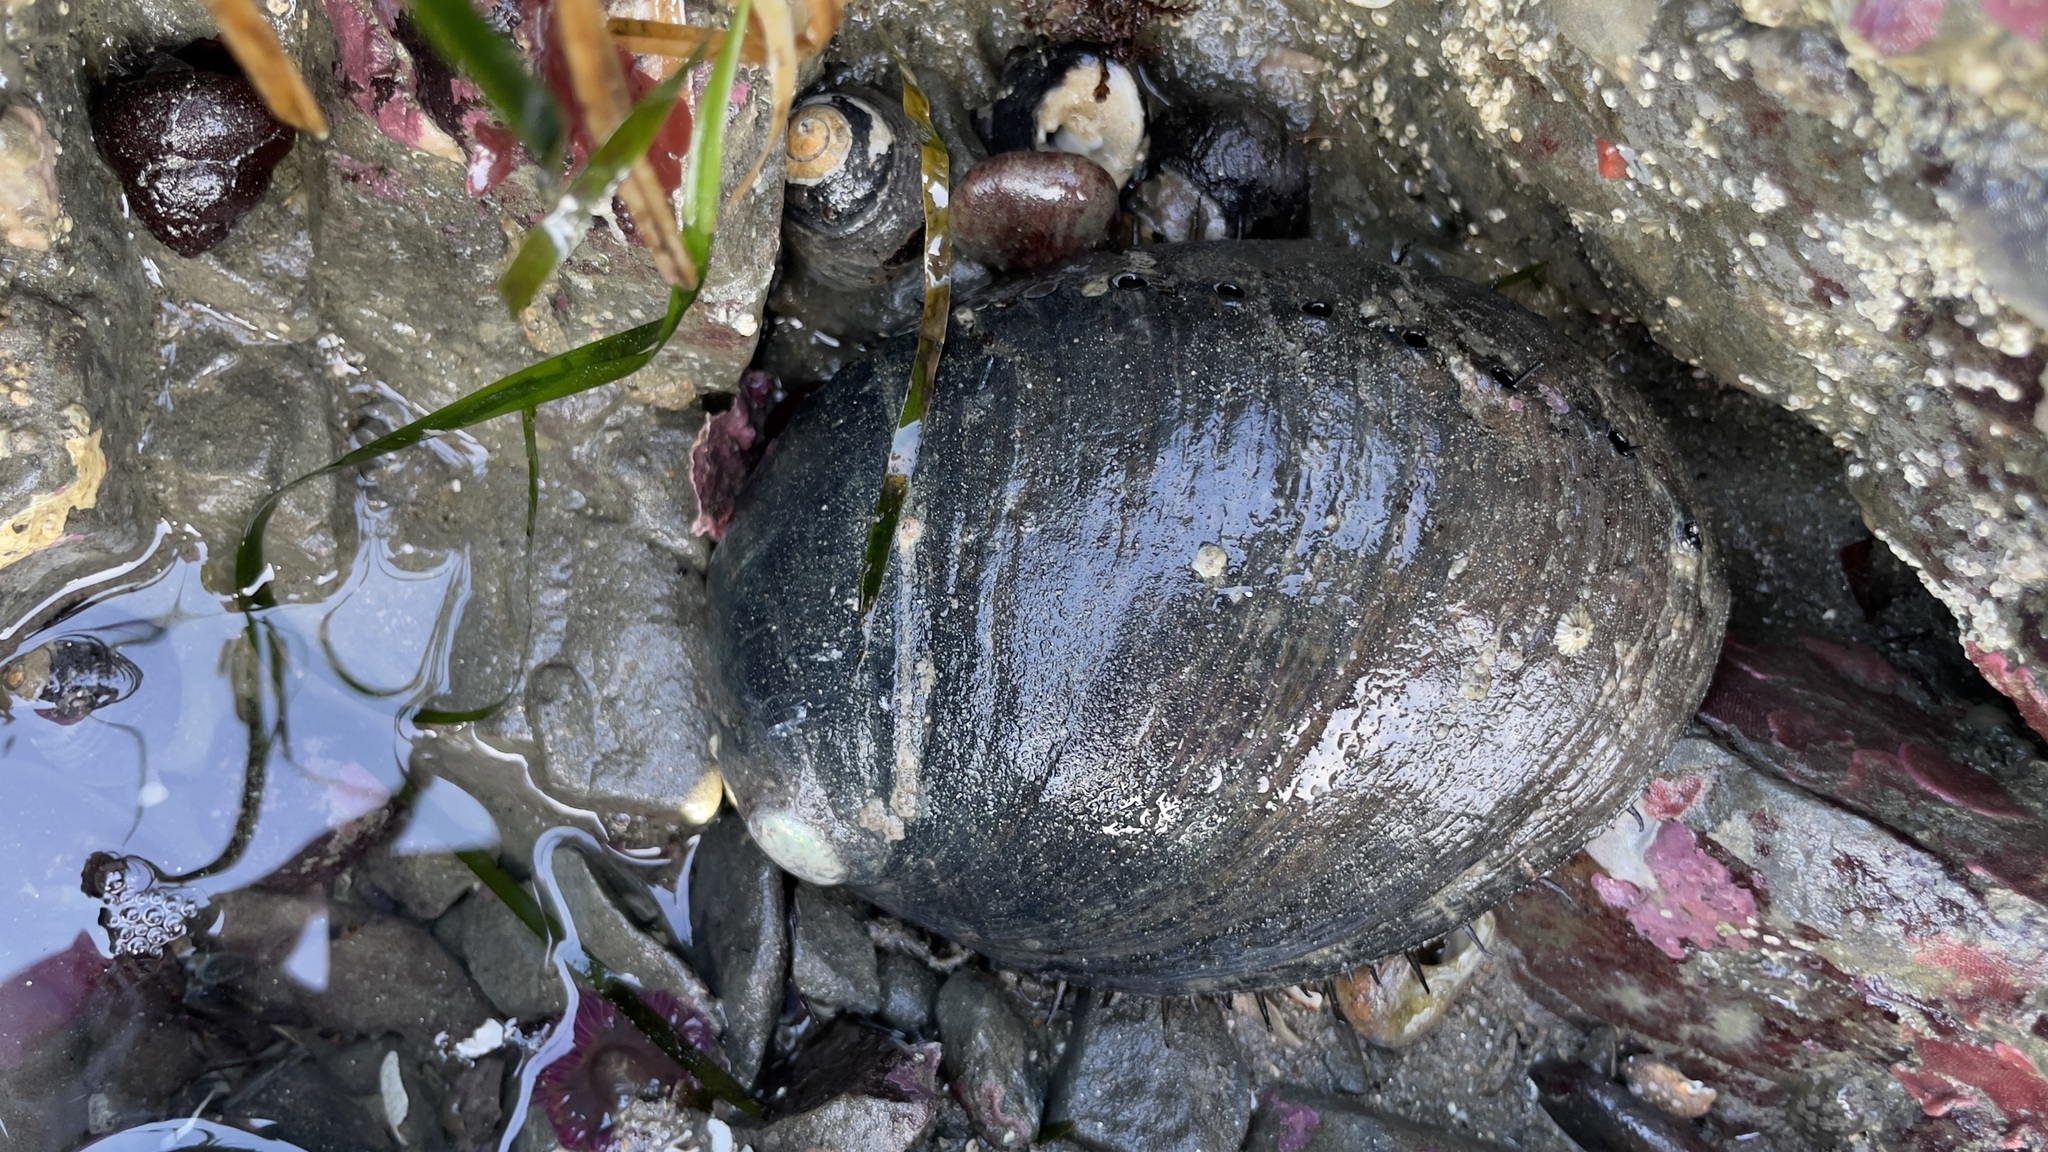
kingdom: Animalia
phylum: Mollusca
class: Gastropoda
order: Lepetellida
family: Haliotidae
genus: Haliotis
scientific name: Haliotis cracherodii
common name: Black abalone
